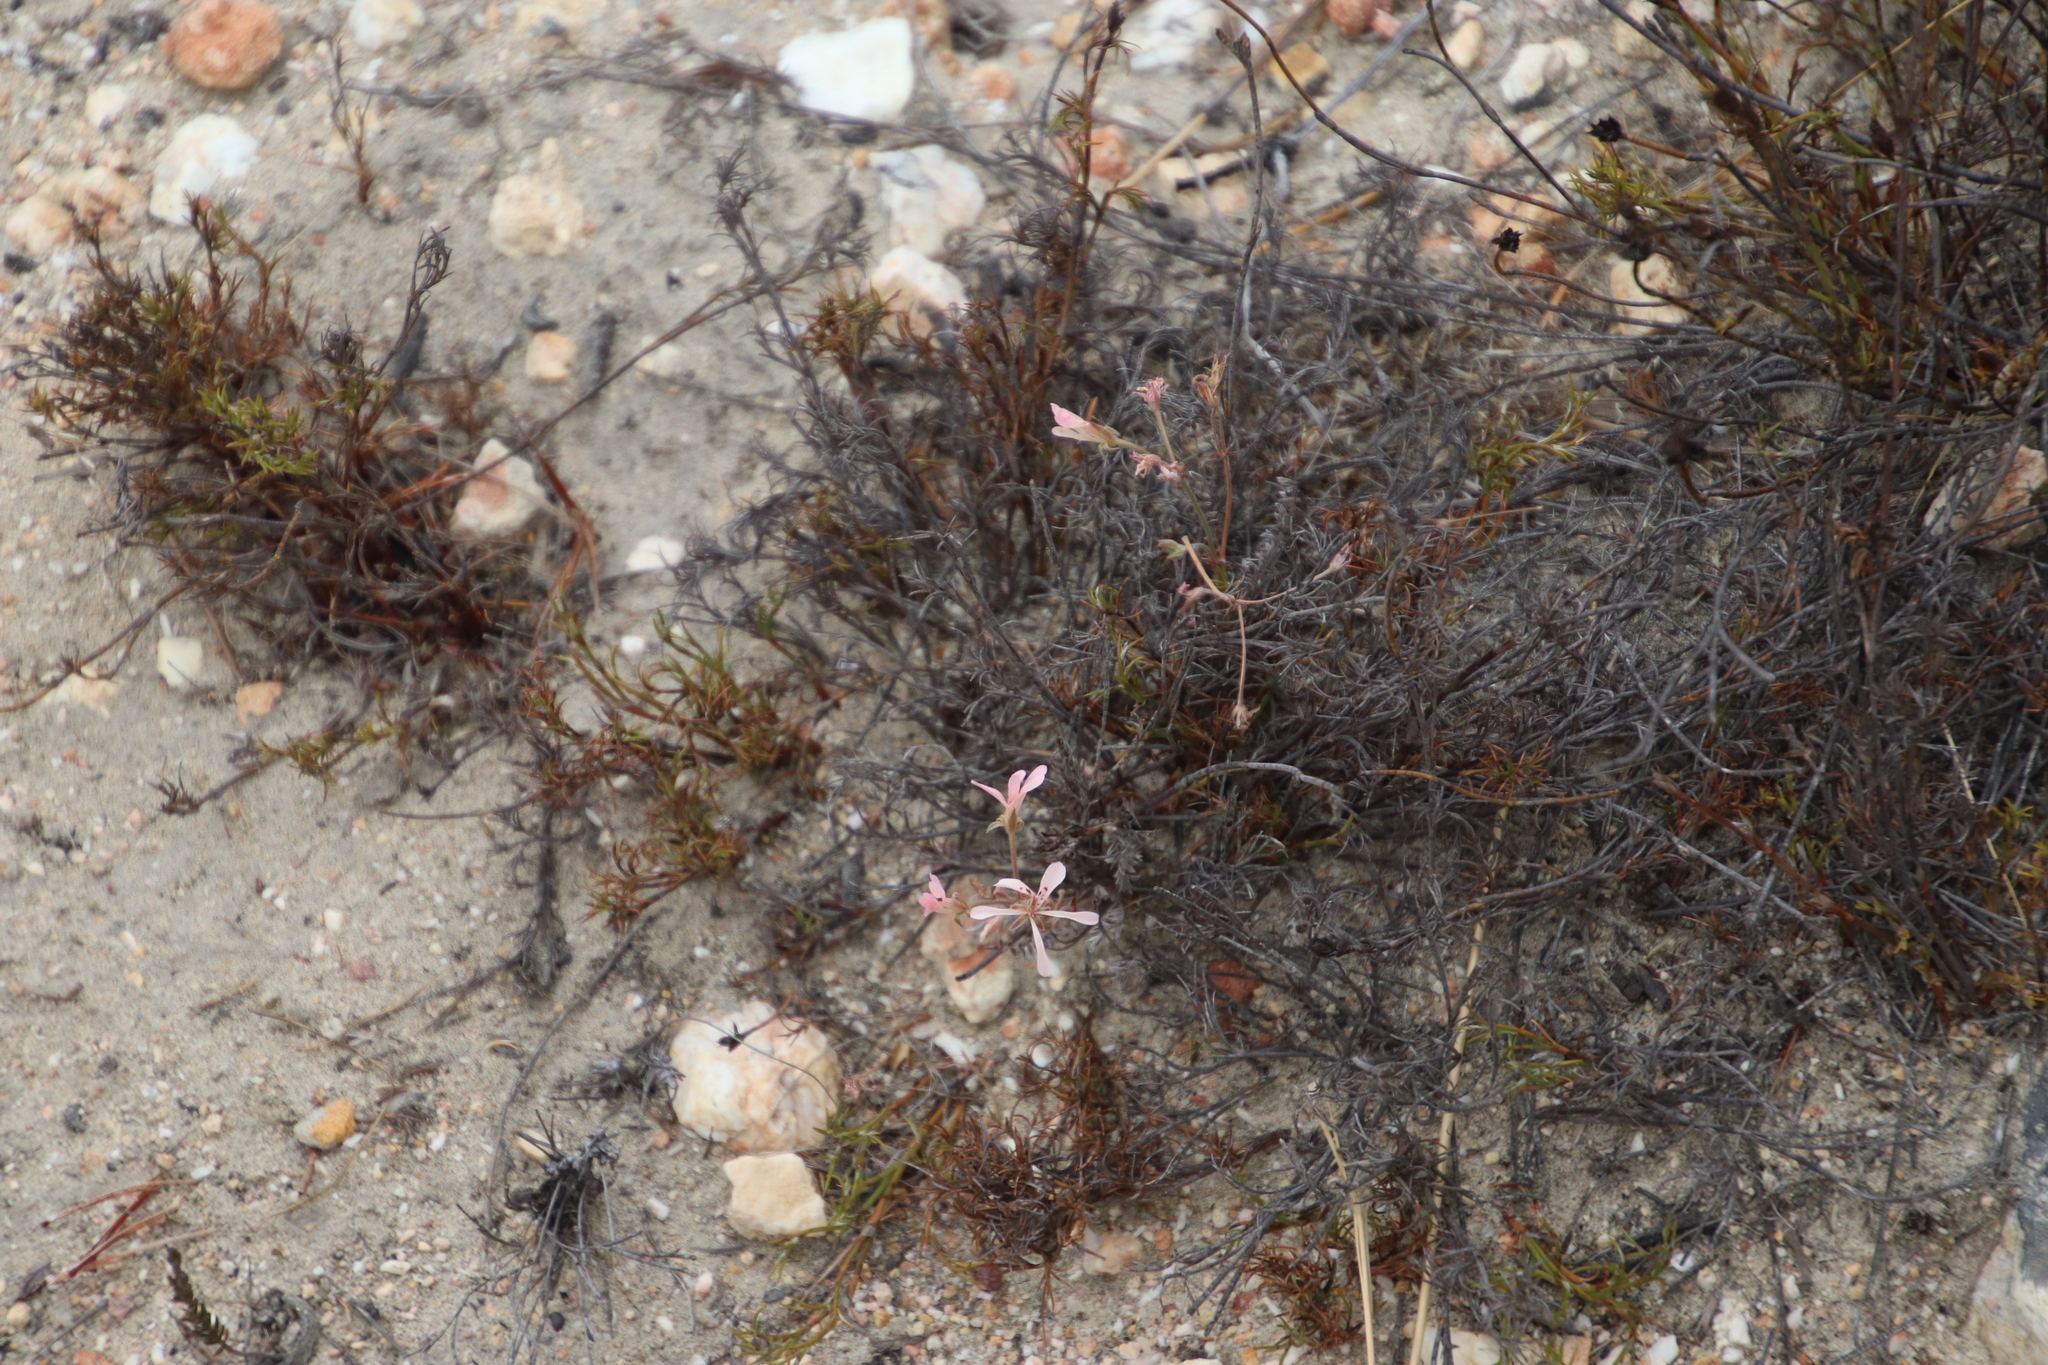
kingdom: Plantae
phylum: Tracheophyta
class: Magnoliopsida
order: Geraniales
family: Geraniaceae
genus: Pelargonium
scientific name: Pelargonium pinnatum
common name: Pinnated pelargonium
